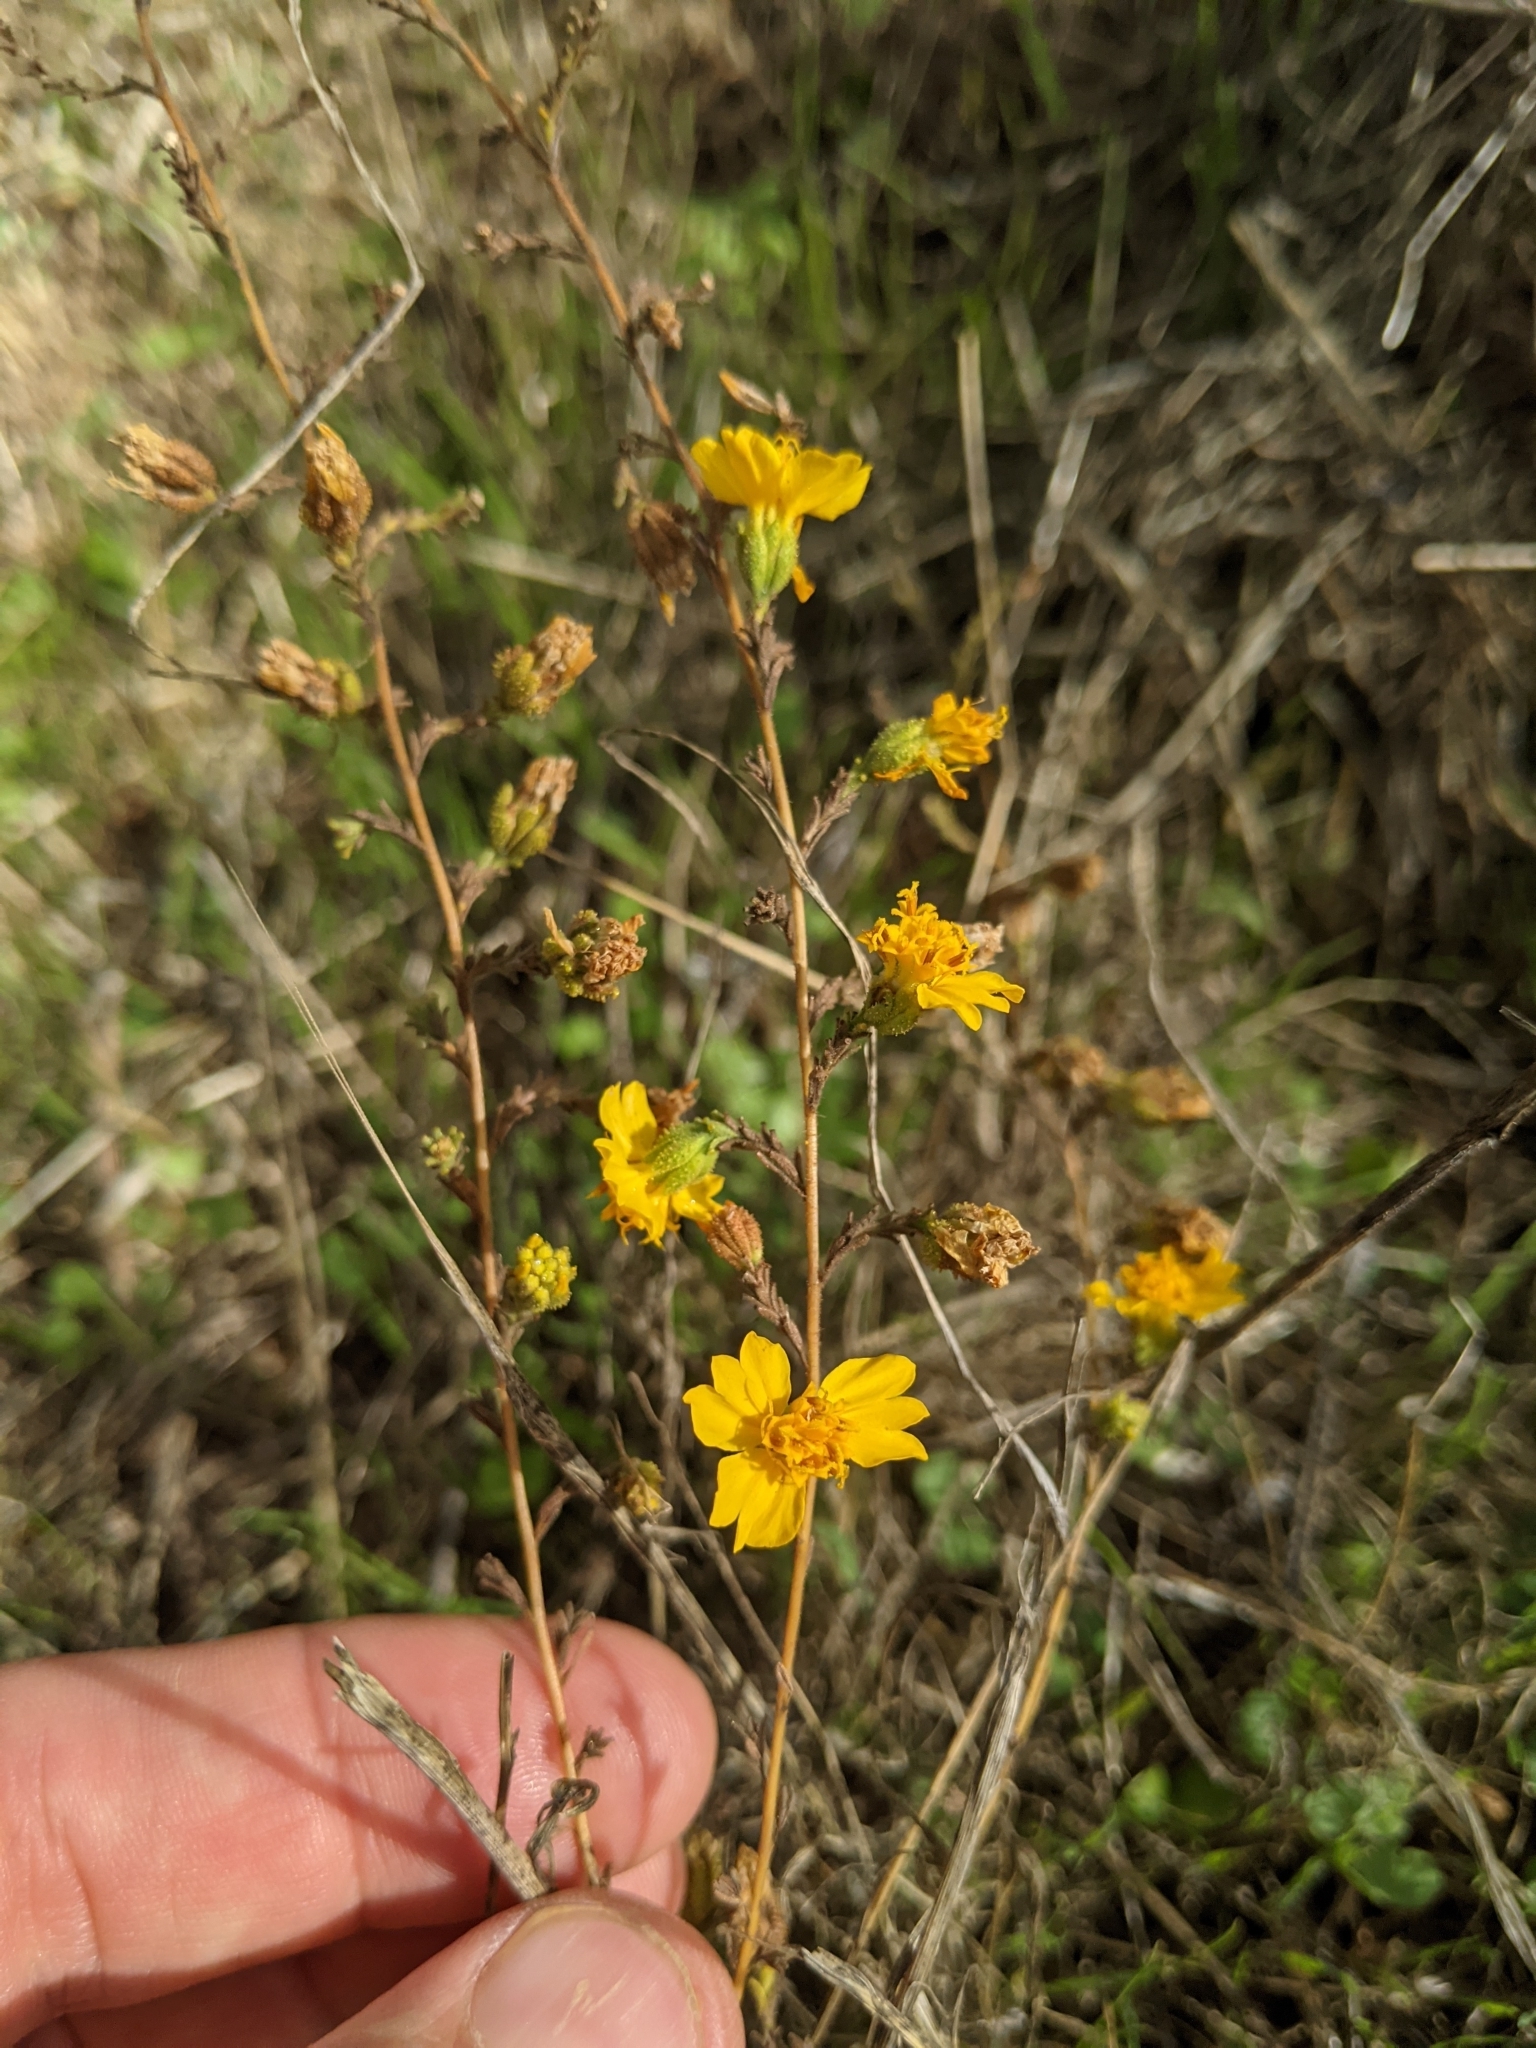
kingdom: Plantae
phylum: Tracheophyta
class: Magnoliopsida
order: Asterales
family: Asteraceae
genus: Holocarpha
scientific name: Holocarpha heermannii
